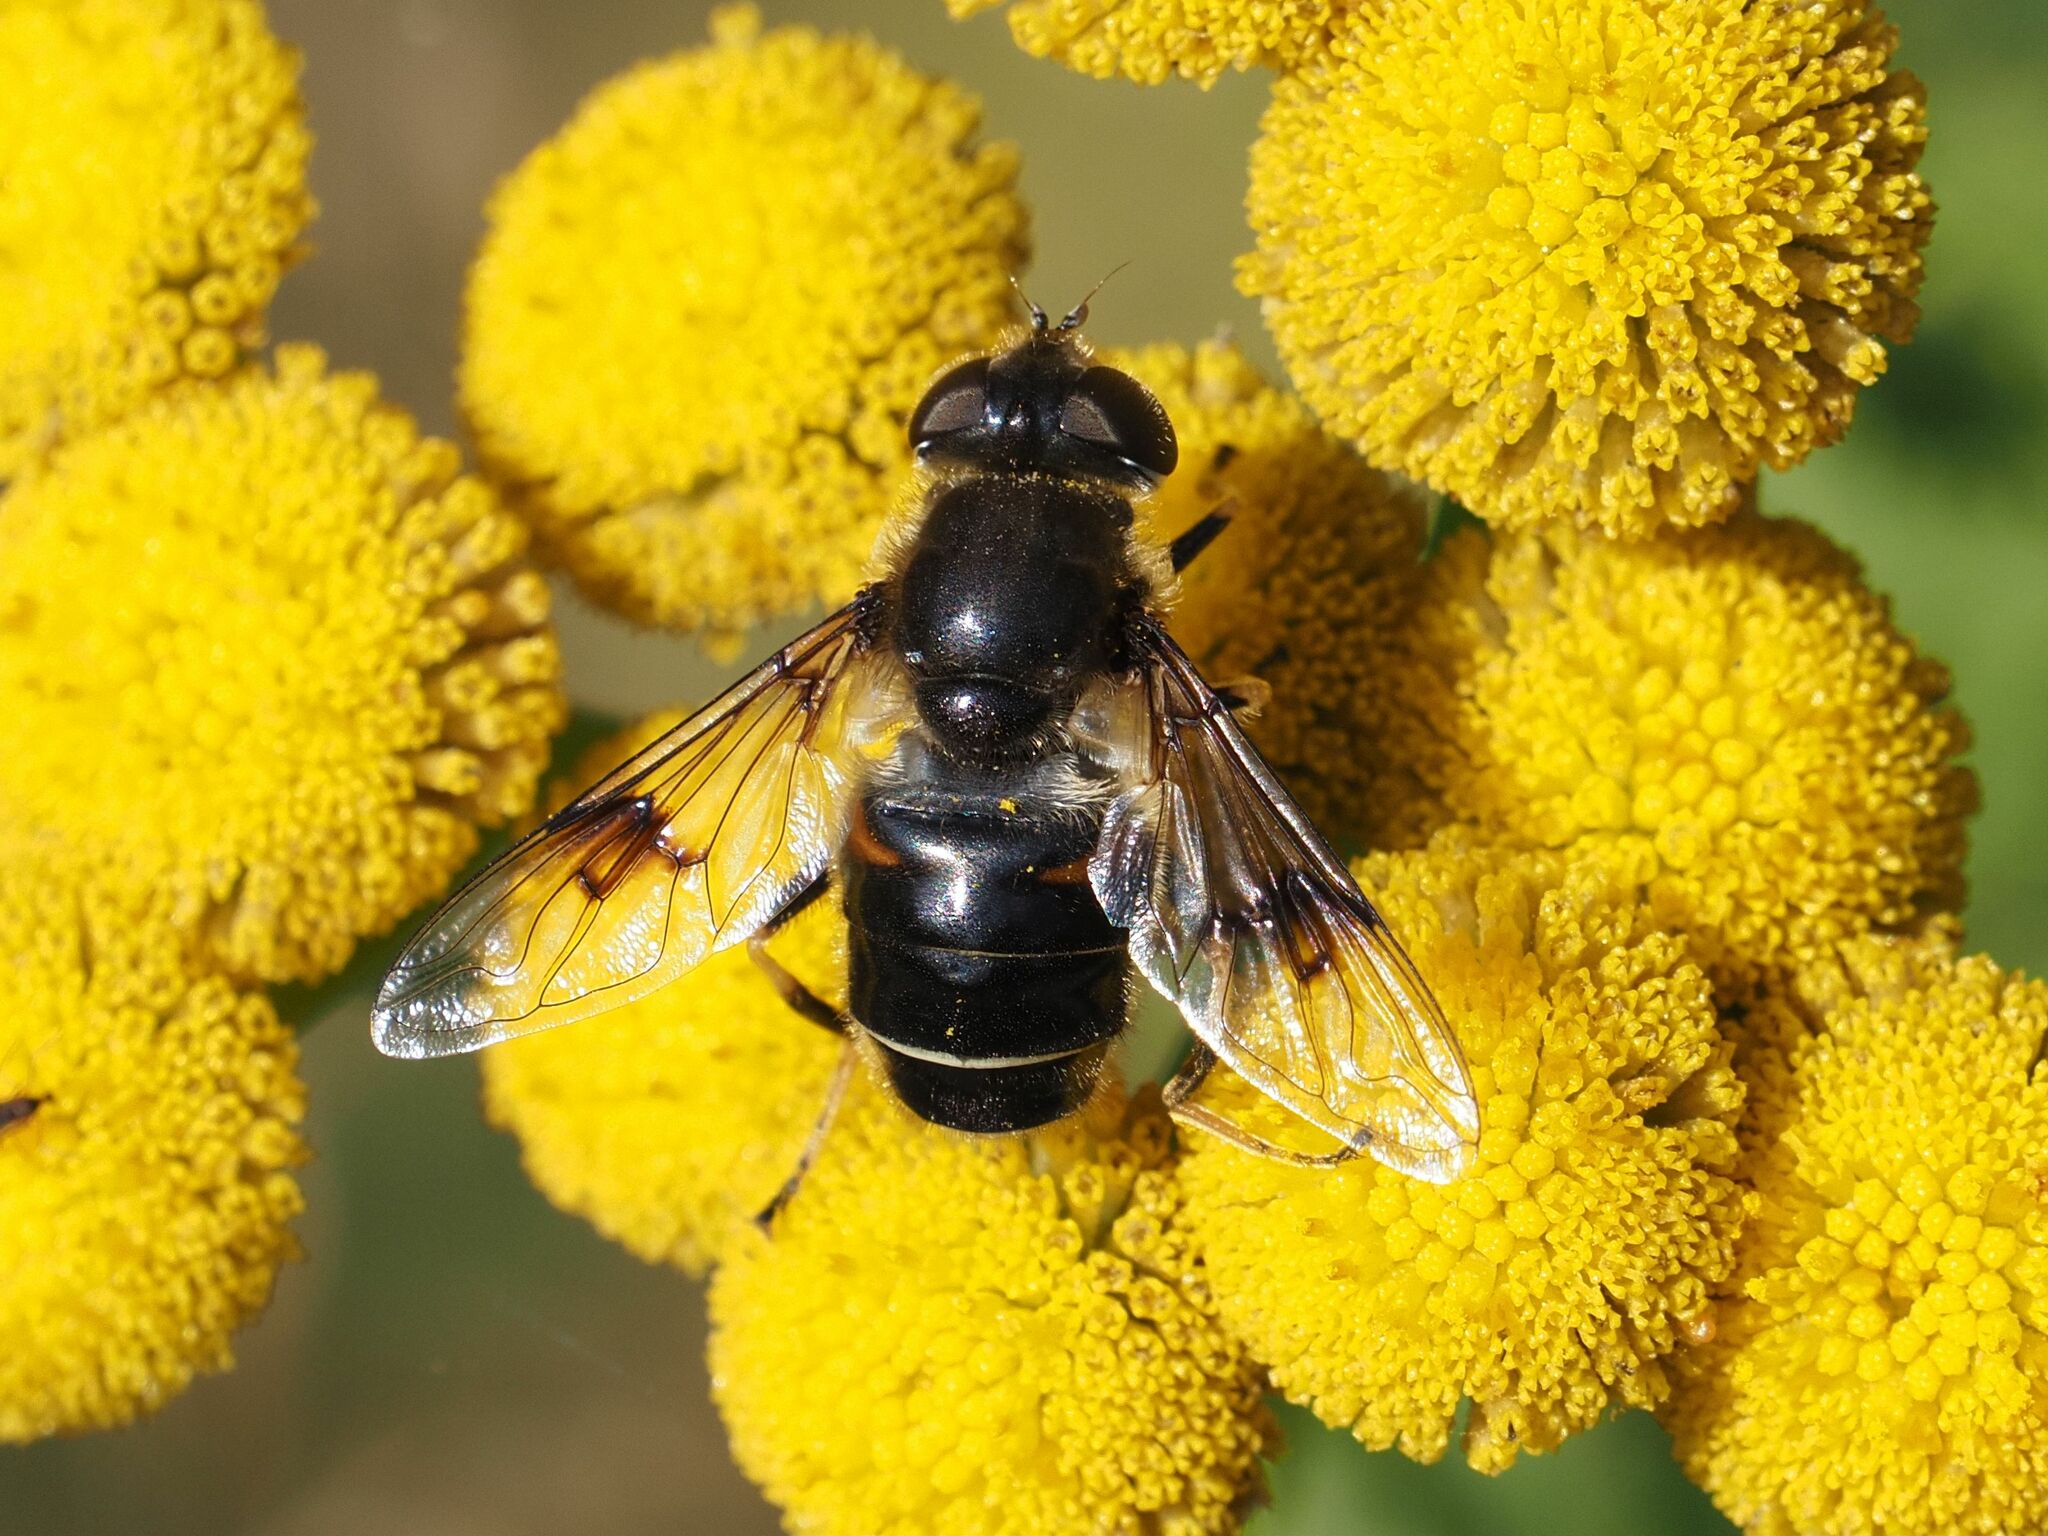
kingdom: Animalia
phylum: Arthropoda
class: Insecta
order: Diptera
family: Syrphidae
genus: Eristalis
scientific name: Eristalis rupium
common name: Hover fly
